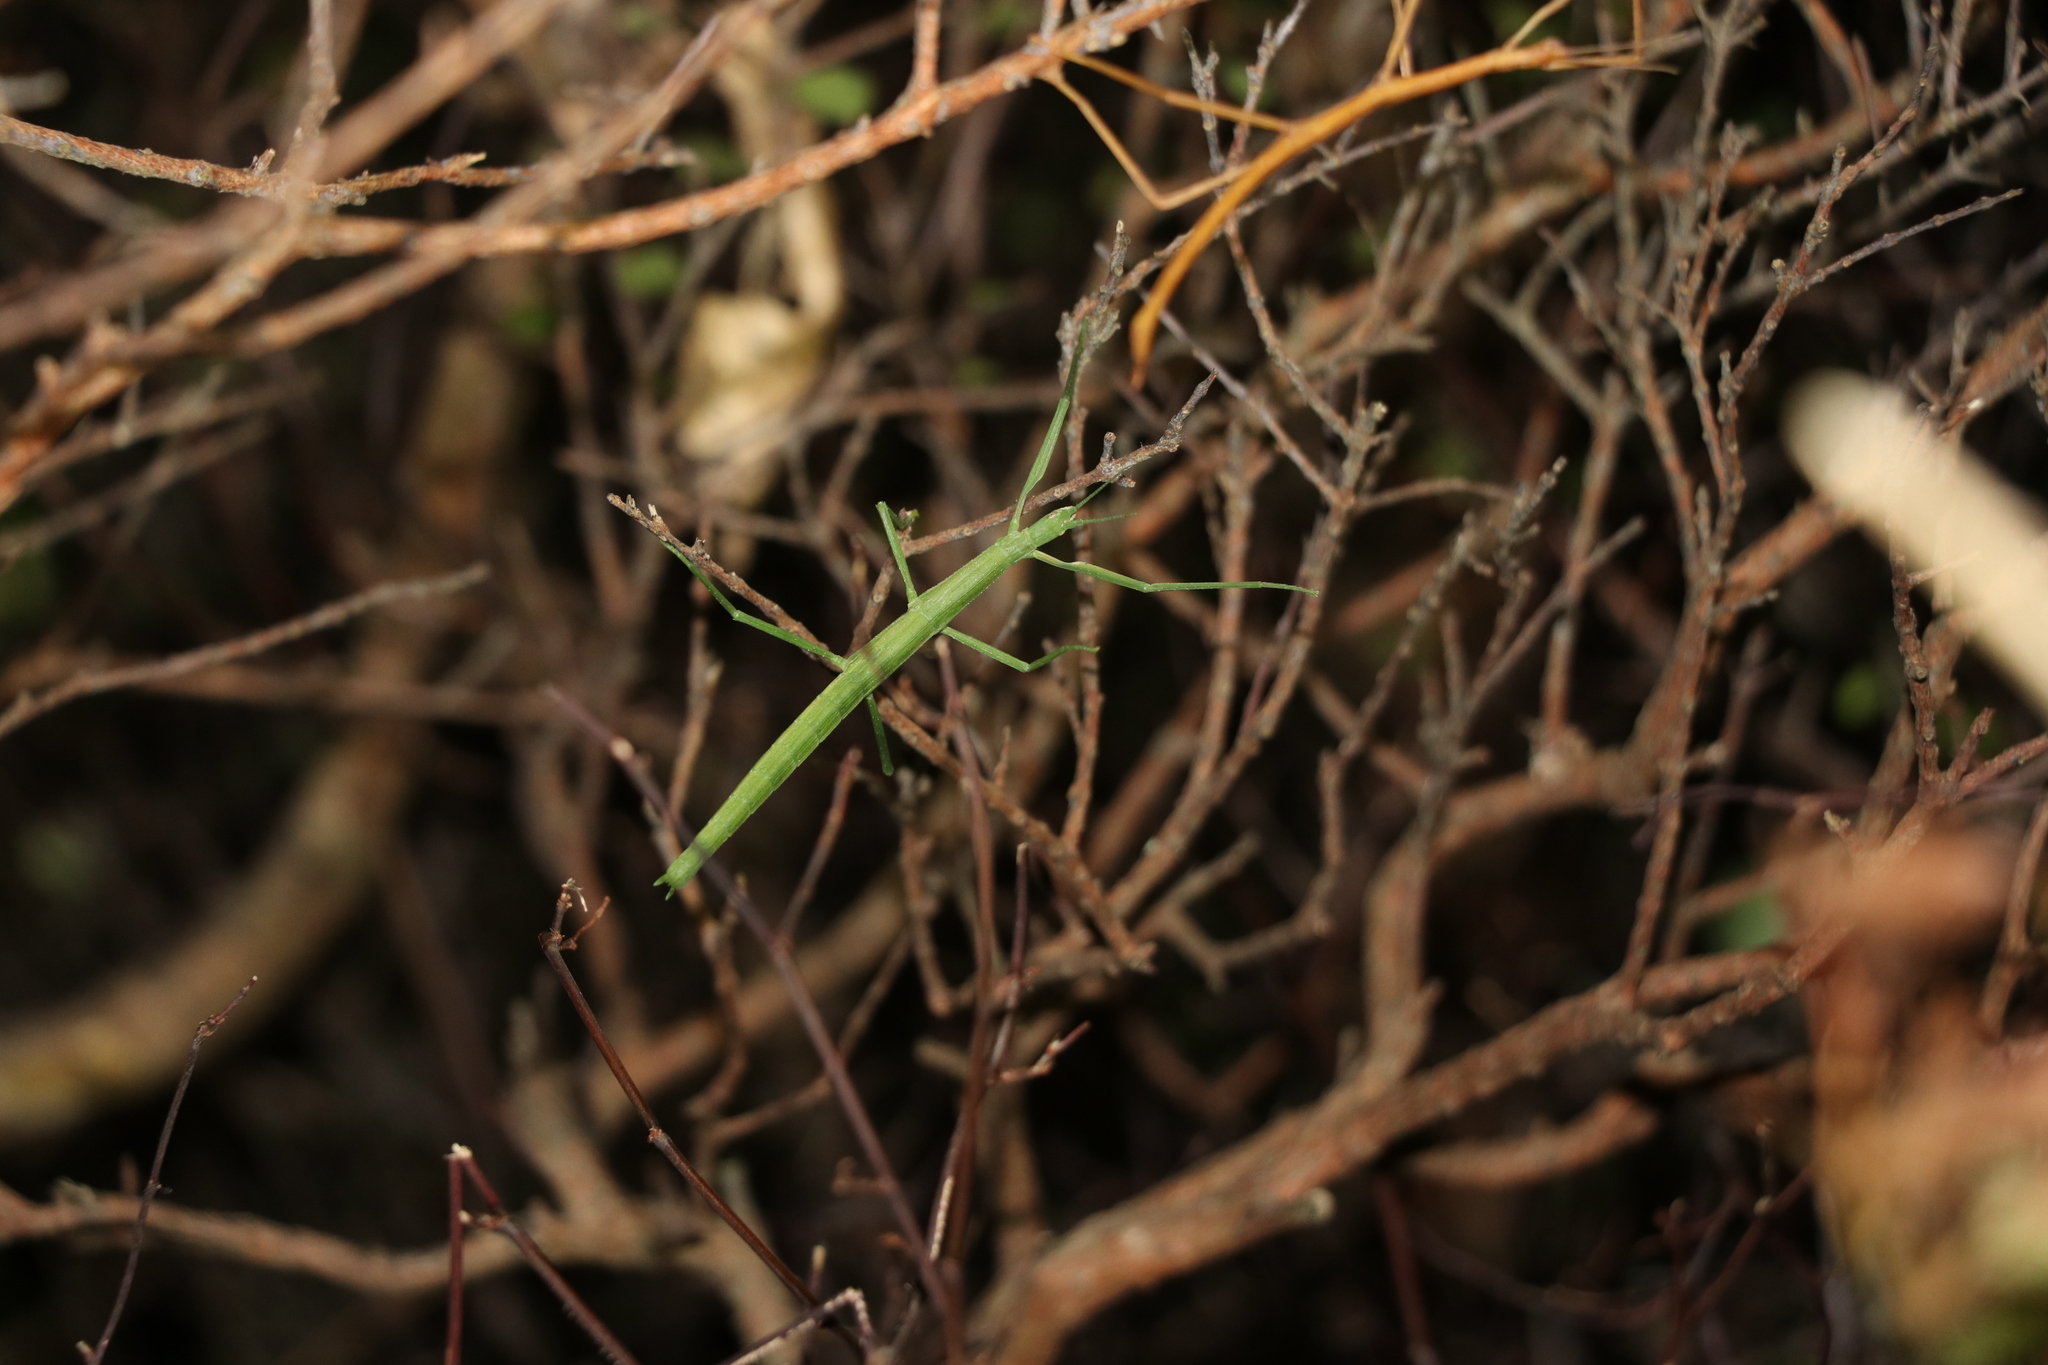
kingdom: Animalia
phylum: Arthropoda
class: Insecta
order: Phasmida
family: Phasmatidae
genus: Tectarchus
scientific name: Tectarchus huttoni
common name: The common ridge-backed stick insect
